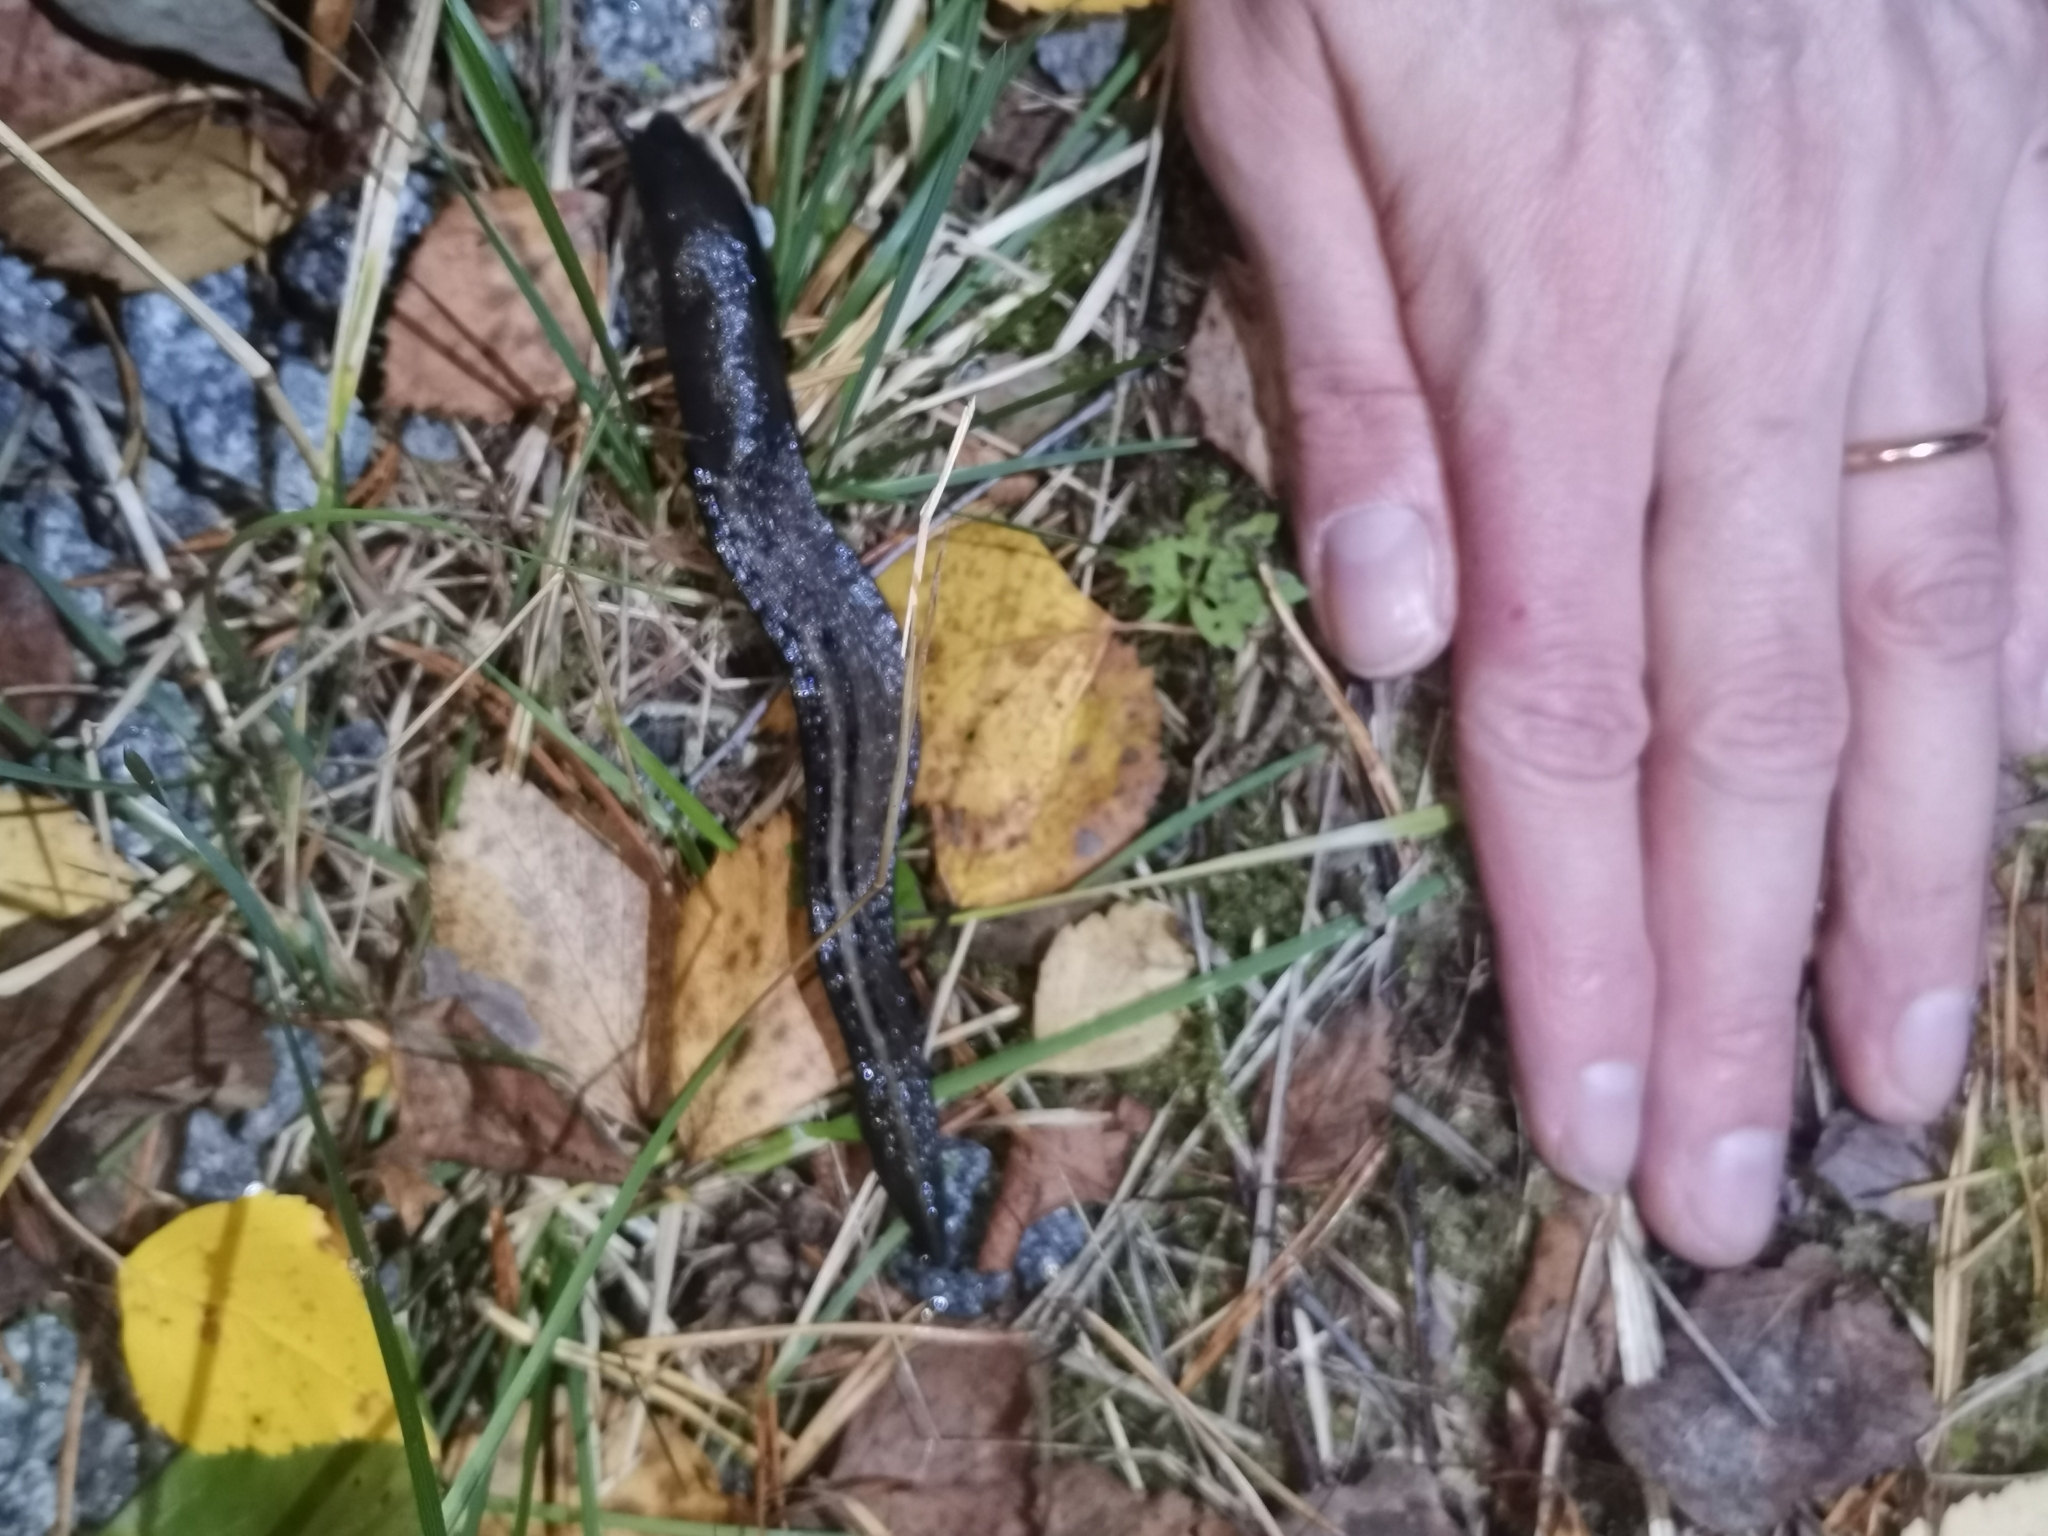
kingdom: Animalia
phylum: Mollusca
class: Gastropoda
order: Stylommatophora
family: Limacidae
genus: Limax
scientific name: Limax cinereoniger
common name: Ash-black slug
